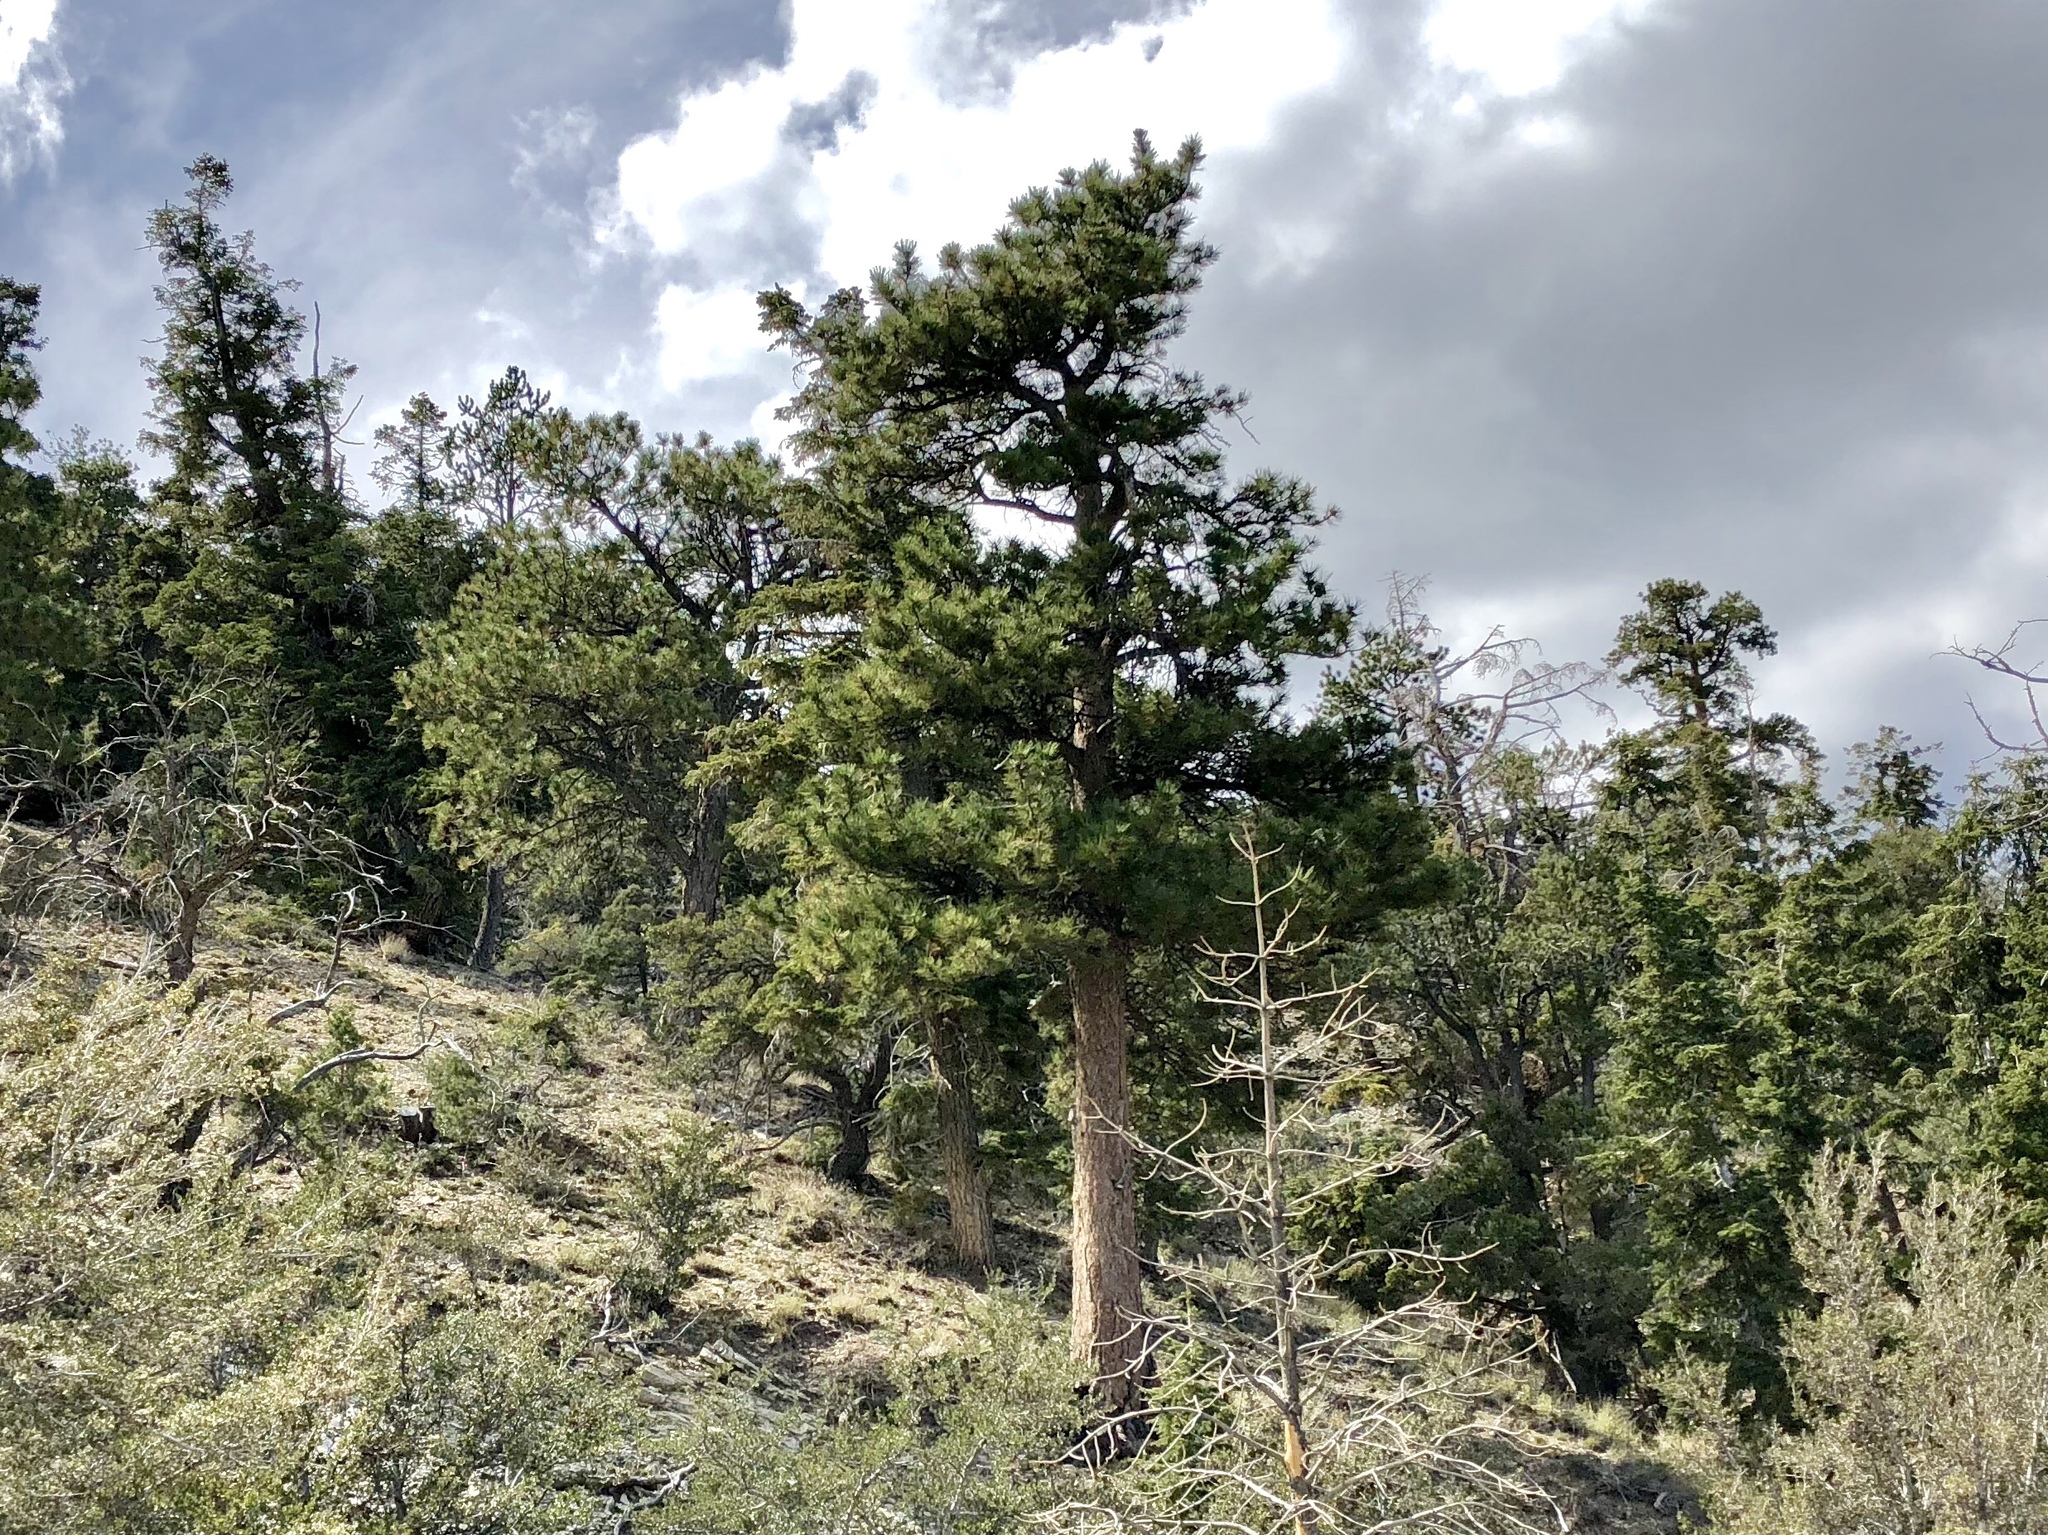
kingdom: Plantae
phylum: Tracheophyta
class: Pinopsida
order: Pinales
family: Pinaceae
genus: Pinus
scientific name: Pinus ponderosa
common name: Western yellow-pine
